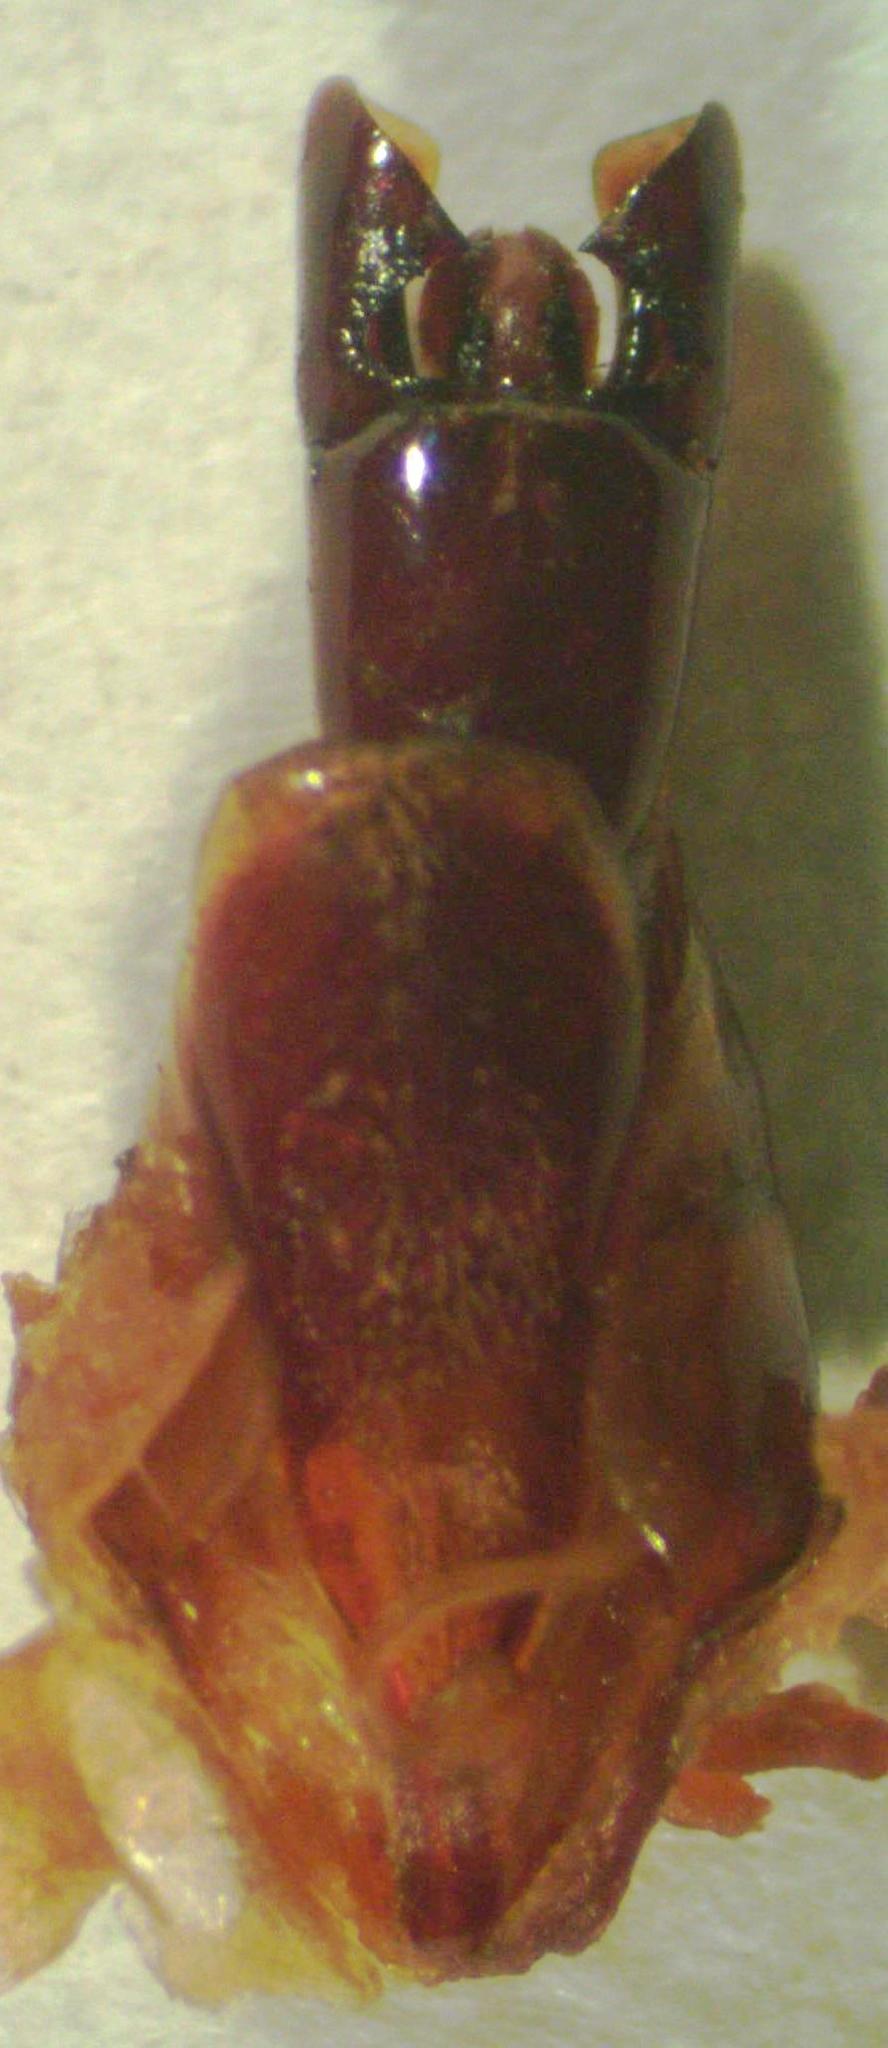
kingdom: Animalia
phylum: Arthropoda
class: Insecta
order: Coleoptera
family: Lucanidae
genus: Epidorcus
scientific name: Epidorcus denticulatus
